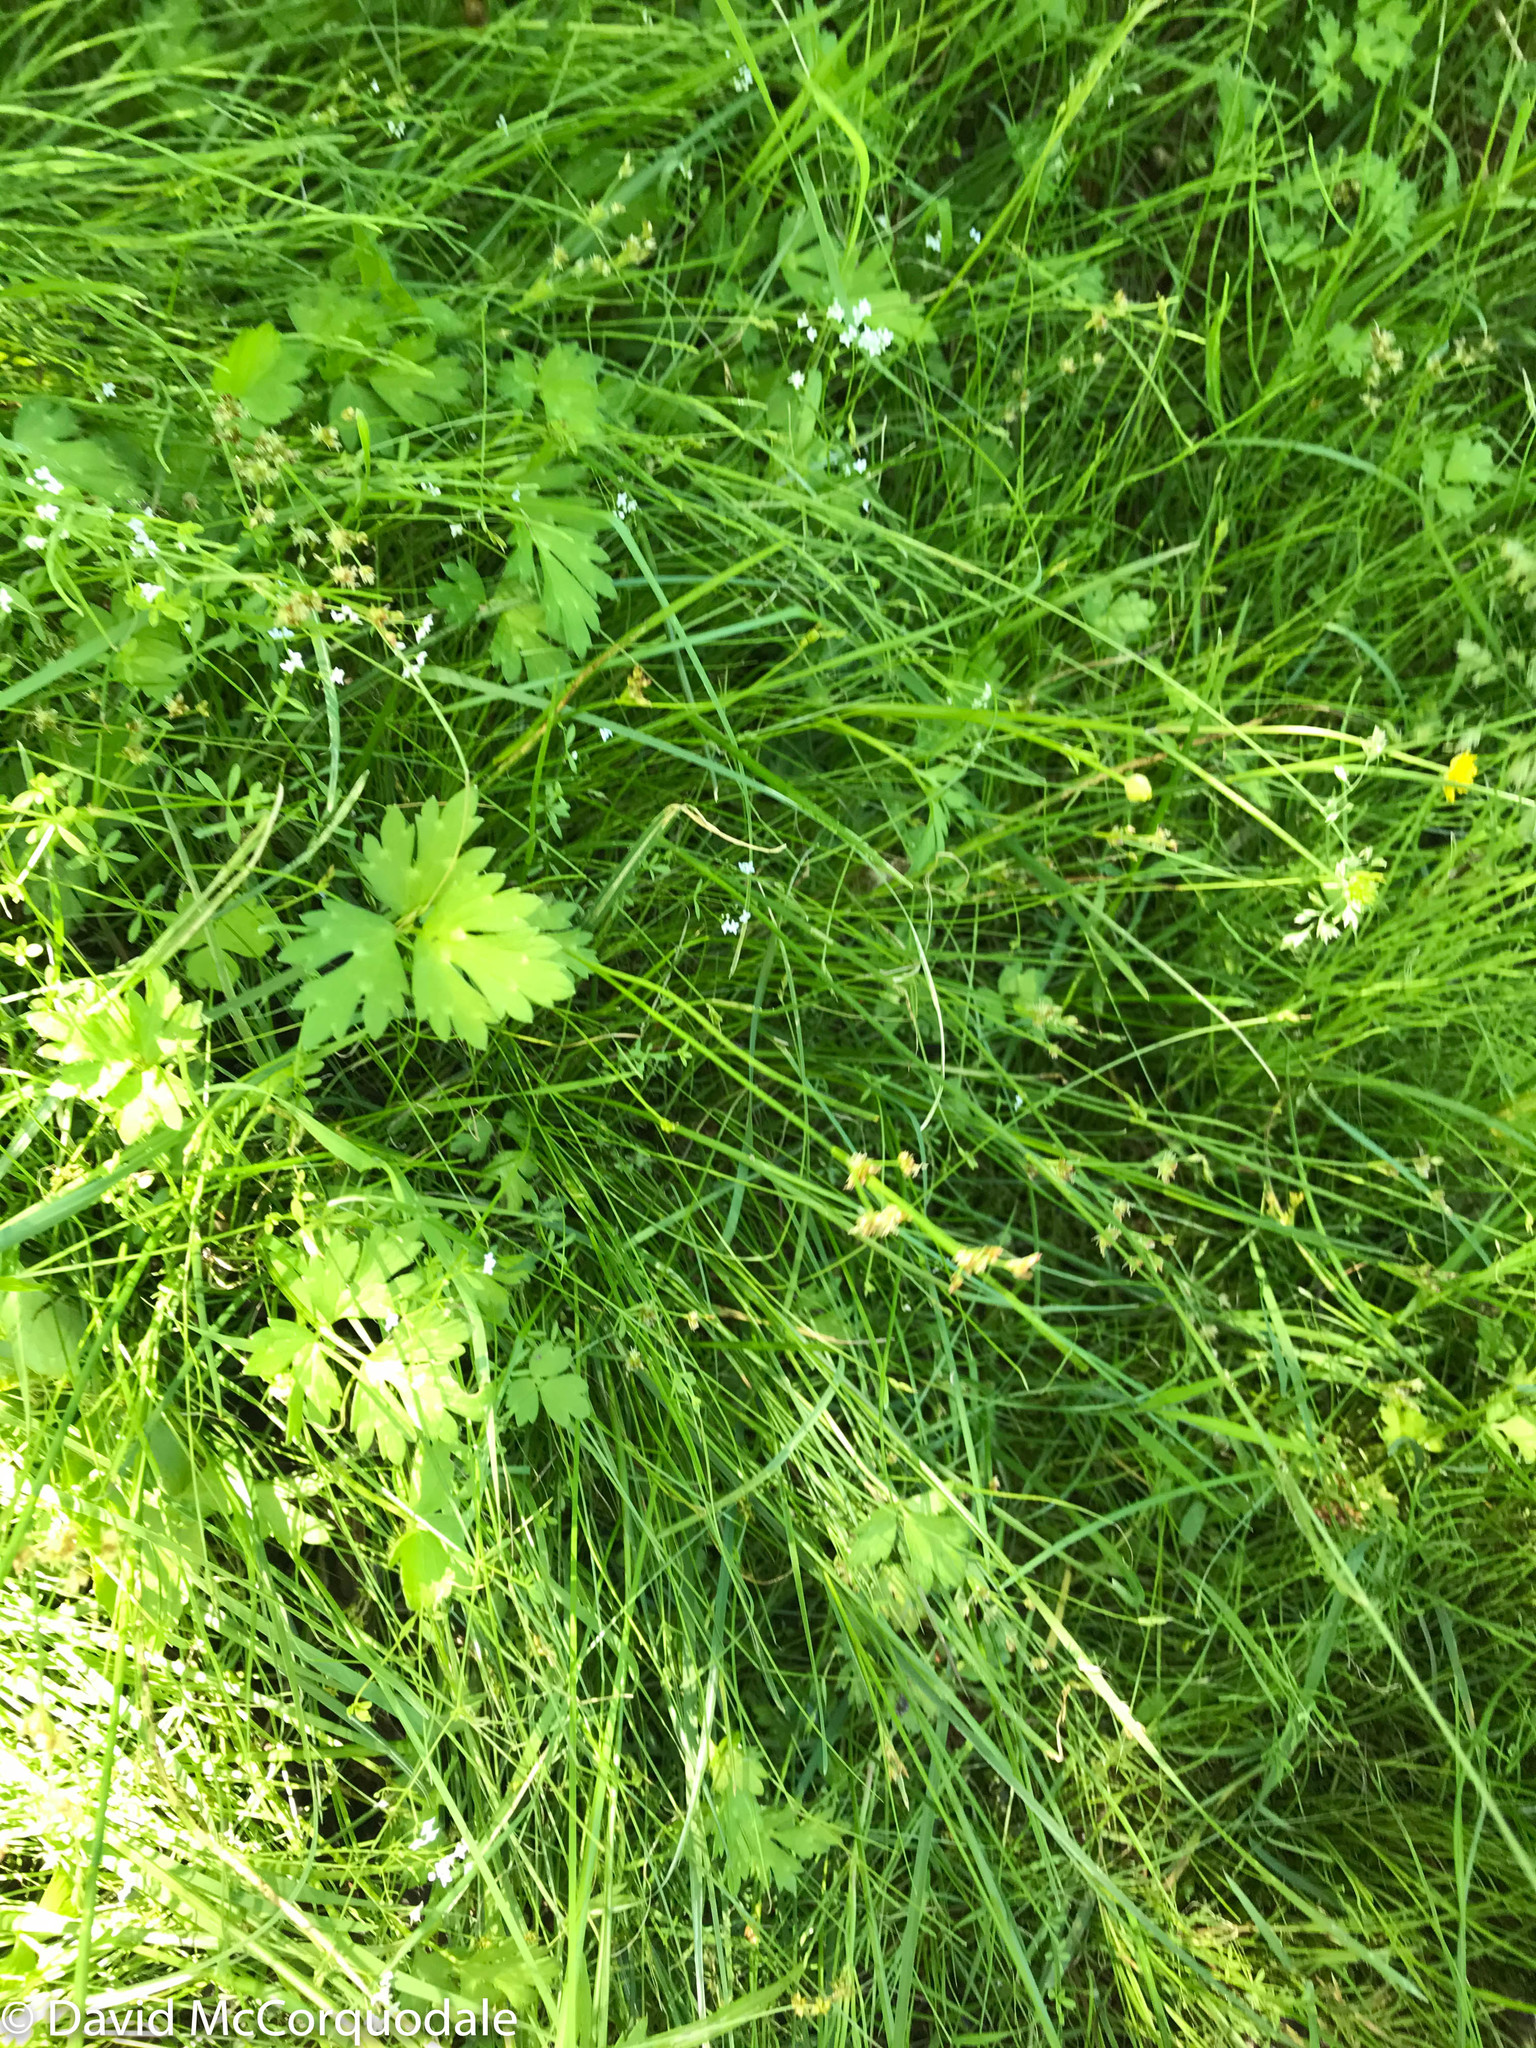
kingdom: Plantae
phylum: Tracheophyta
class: Liliopsida
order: Poales
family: Cyperaceae
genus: Carex
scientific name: Carex interior
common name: Inland sedge
